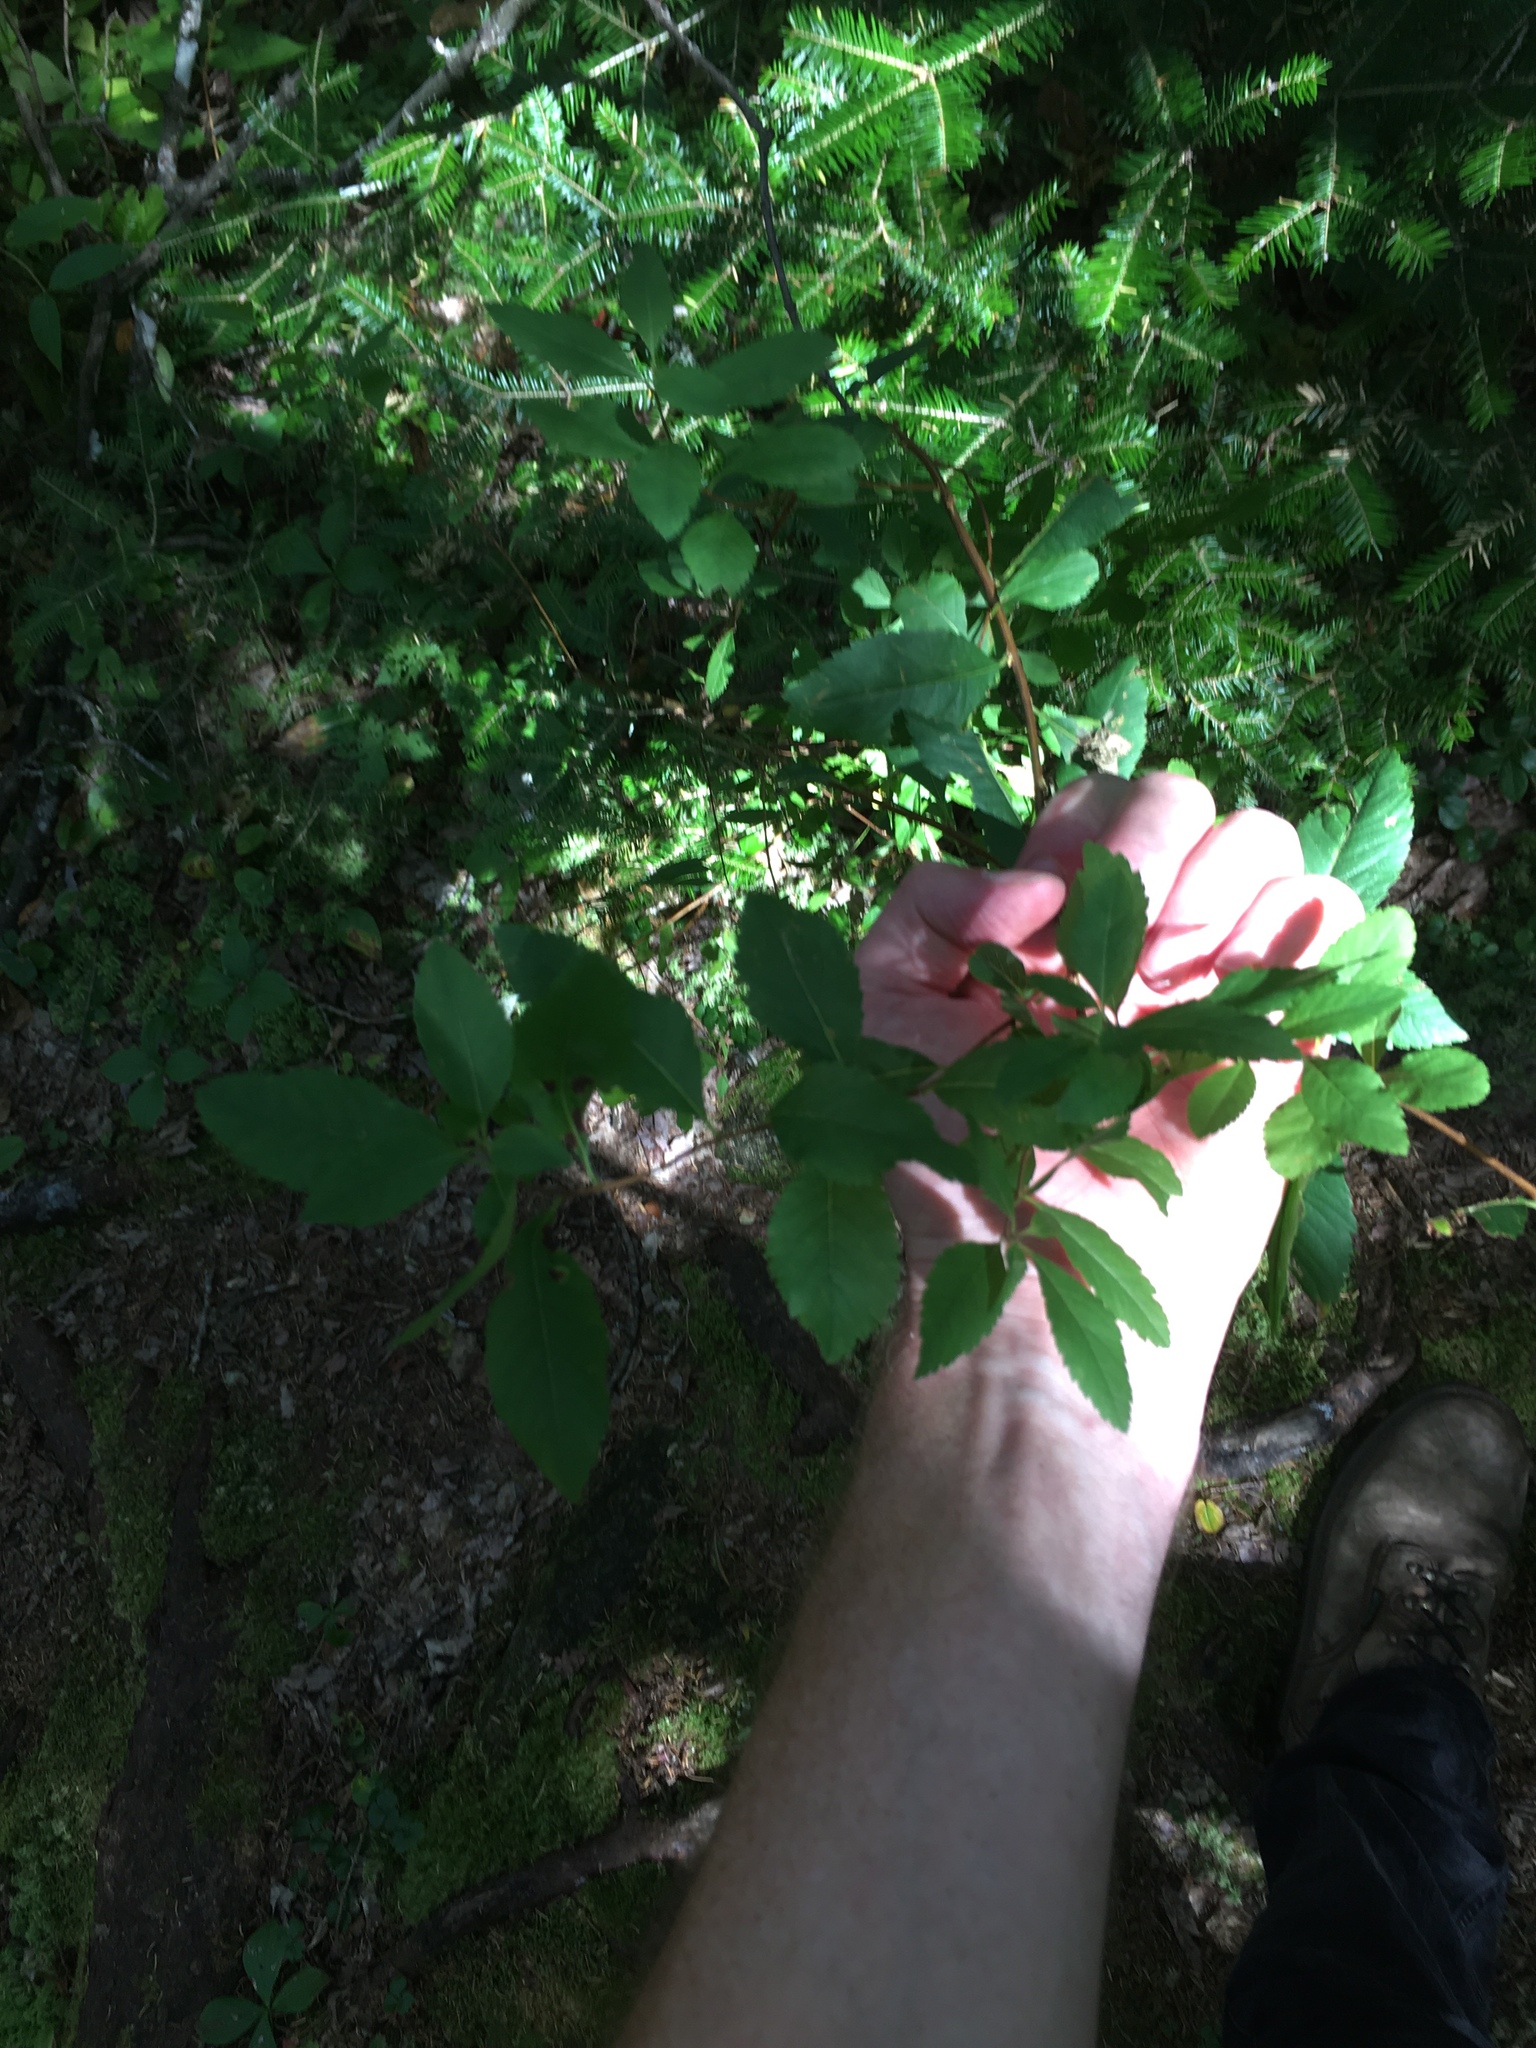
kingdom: Plantae
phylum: Tracheophyta
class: Magnoliopsida
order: Rosales
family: Rosaceae
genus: Spiraea
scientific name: Spiraea alba
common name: Pale bridewort
